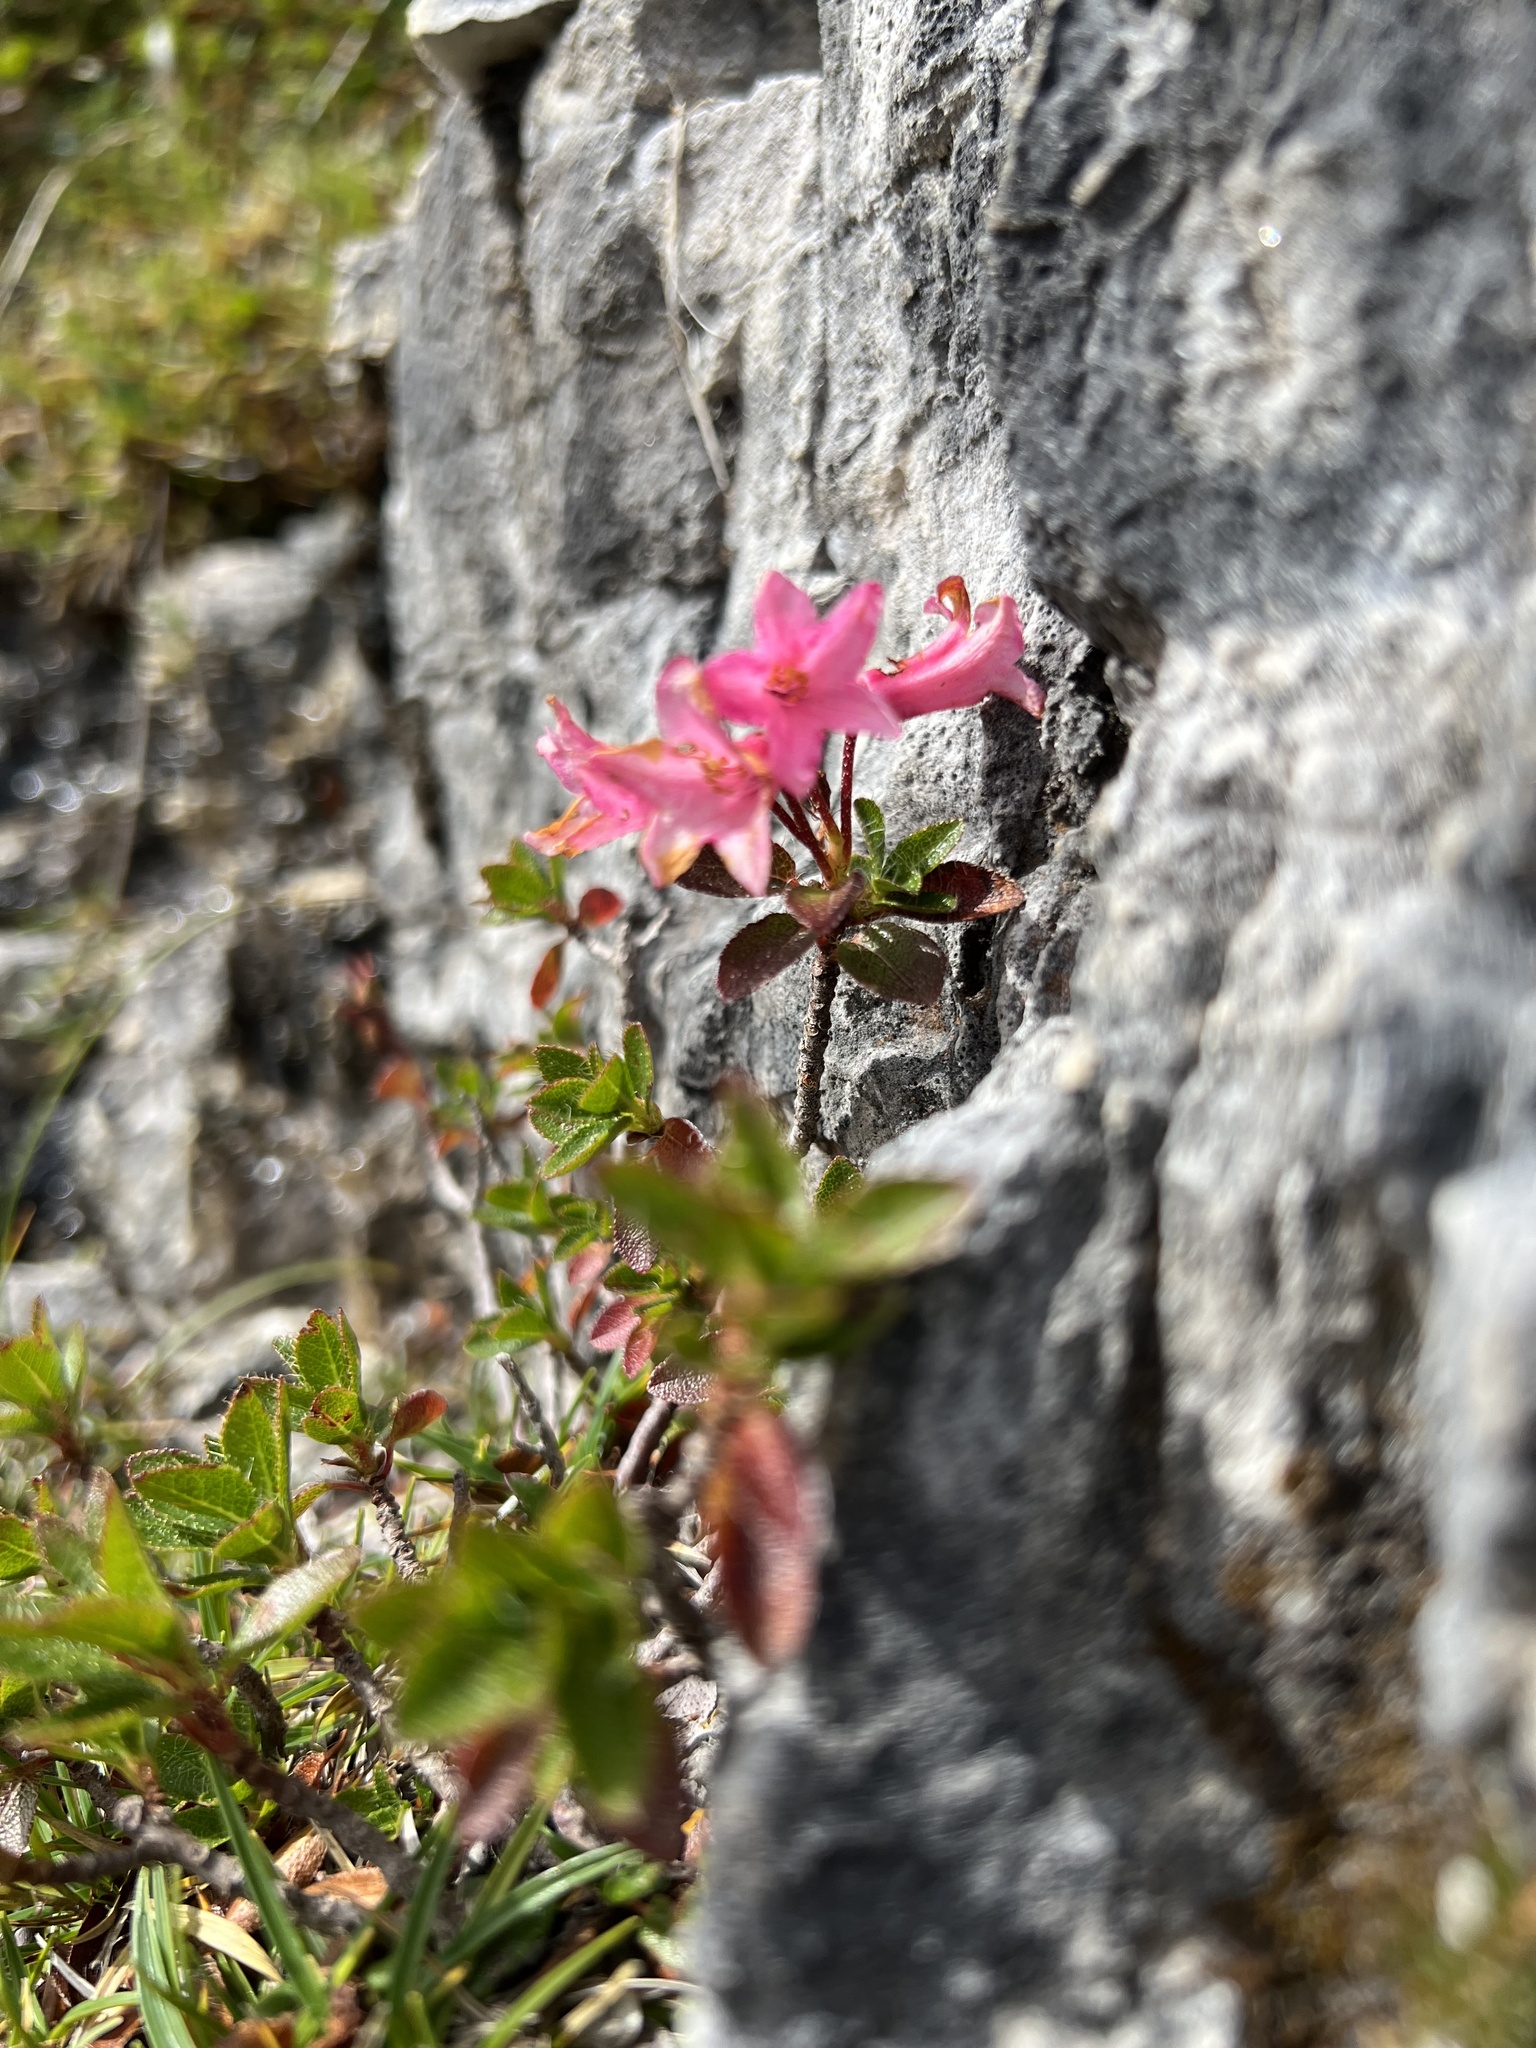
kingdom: Plantae
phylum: Tracheophyta
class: Magnoliopsida
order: Ericales
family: Ericaceae
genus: Rhododendron
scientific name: Rhododendron hirsutum
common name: Hairy alpenrose
